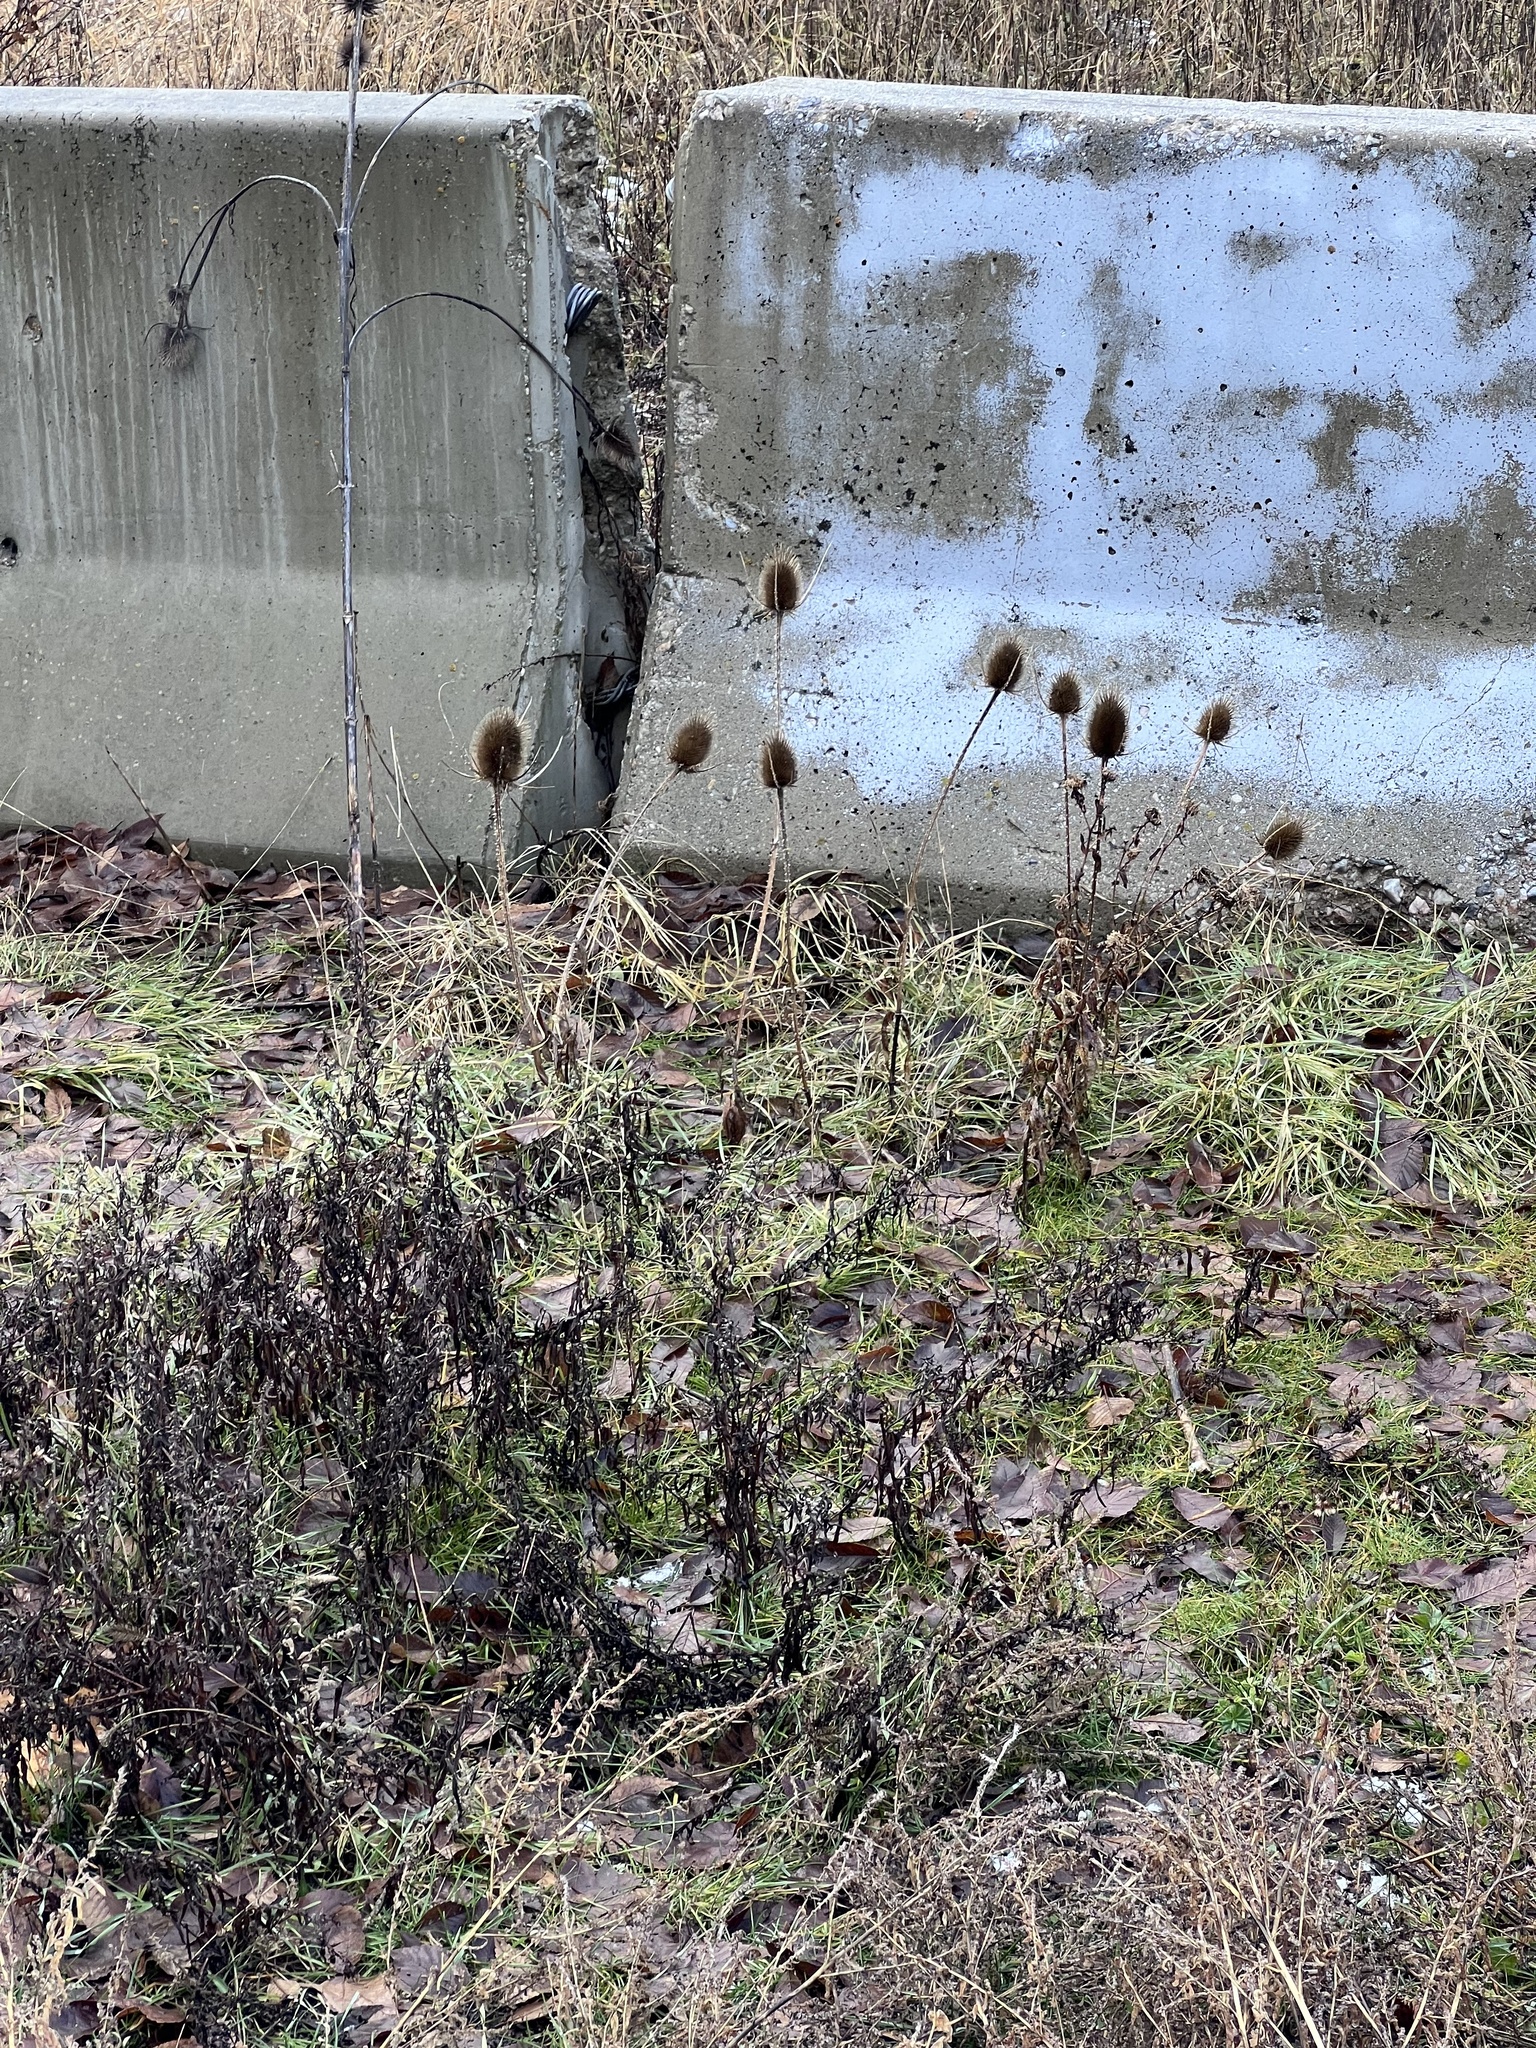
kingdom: Plantae
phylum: Tracheophyta
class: Magnoliopsida
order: Dipsacales
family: Caprifoliaceae
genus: Dipsacus
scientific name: Dipsacus fullonum
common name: Teasel
